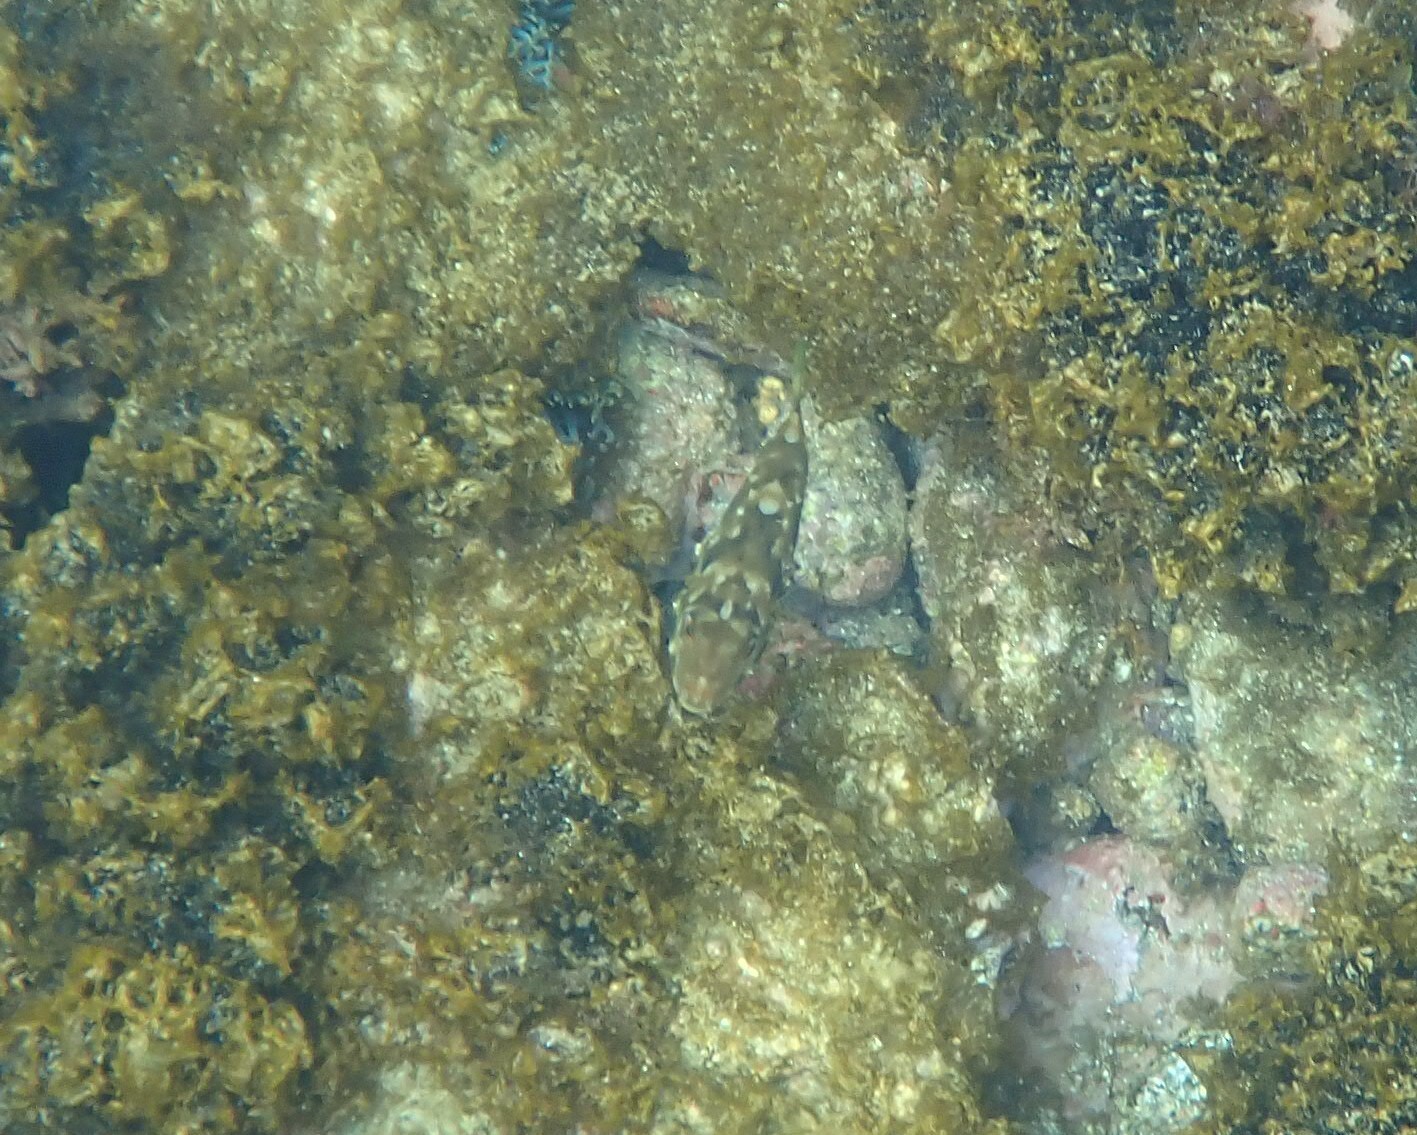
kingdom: Animalia
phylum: Chordata
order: Tetraodontiformes
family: Tetraodontidae
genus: Sphoeroides
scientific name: Sphoeroides marmoratus
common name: Guinean puffer
